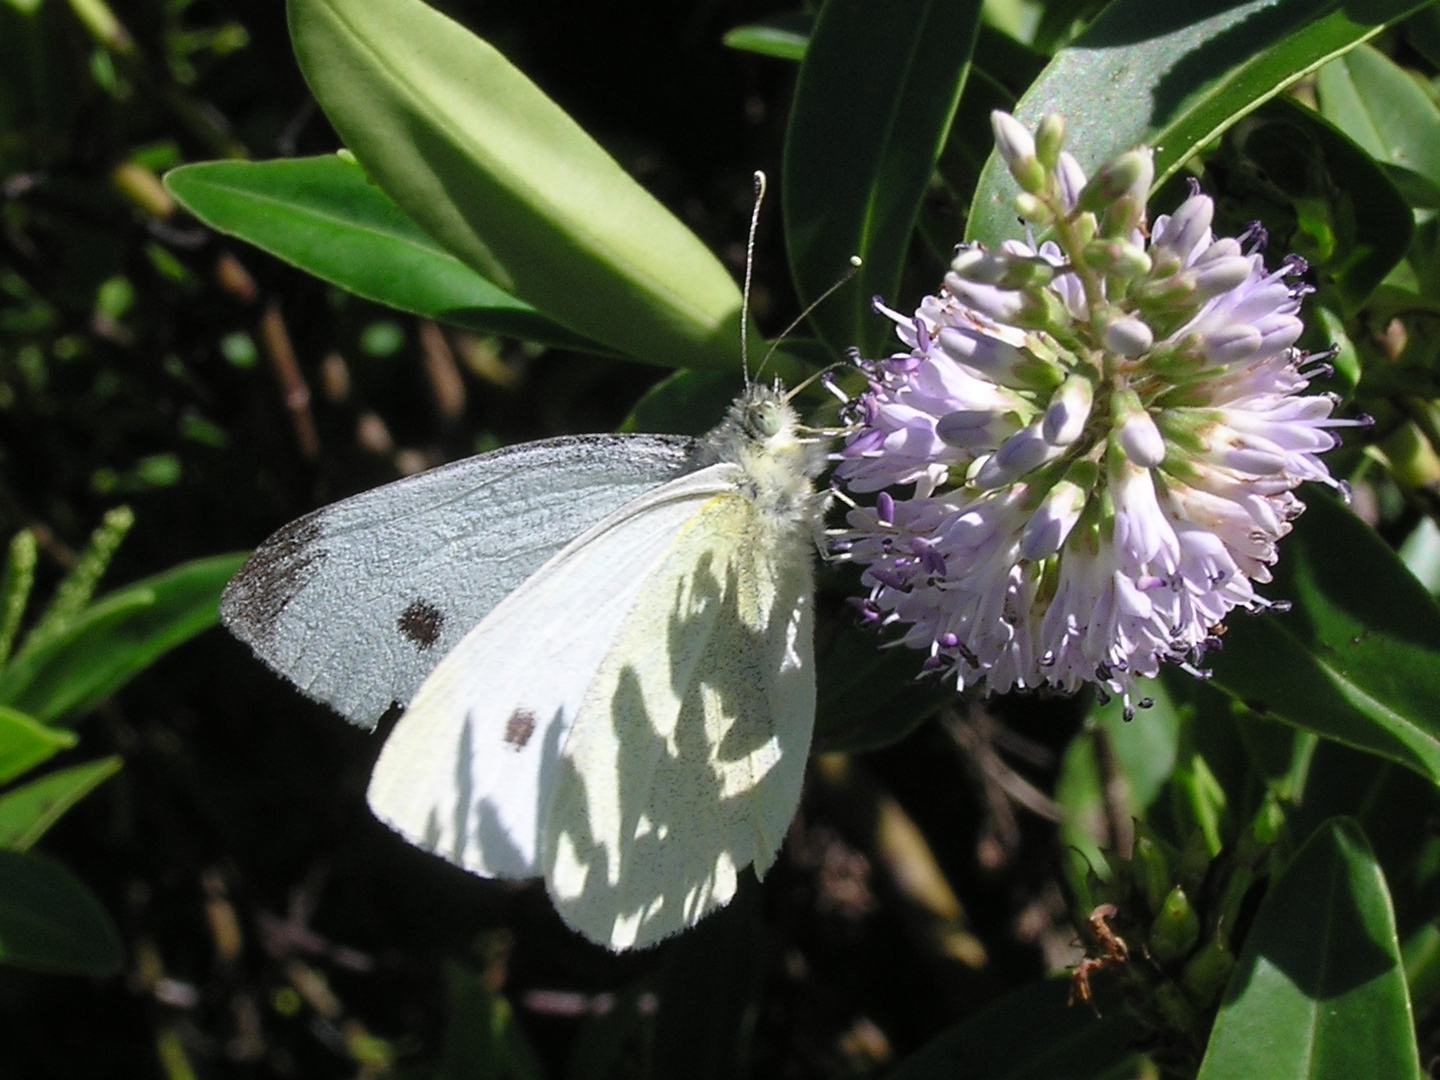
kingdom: Animalia
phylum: Arthropoda
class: Insecta
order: Lepidoptera
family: Pieridae
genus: Pieris
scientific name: Pieris rapae
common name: Small white
